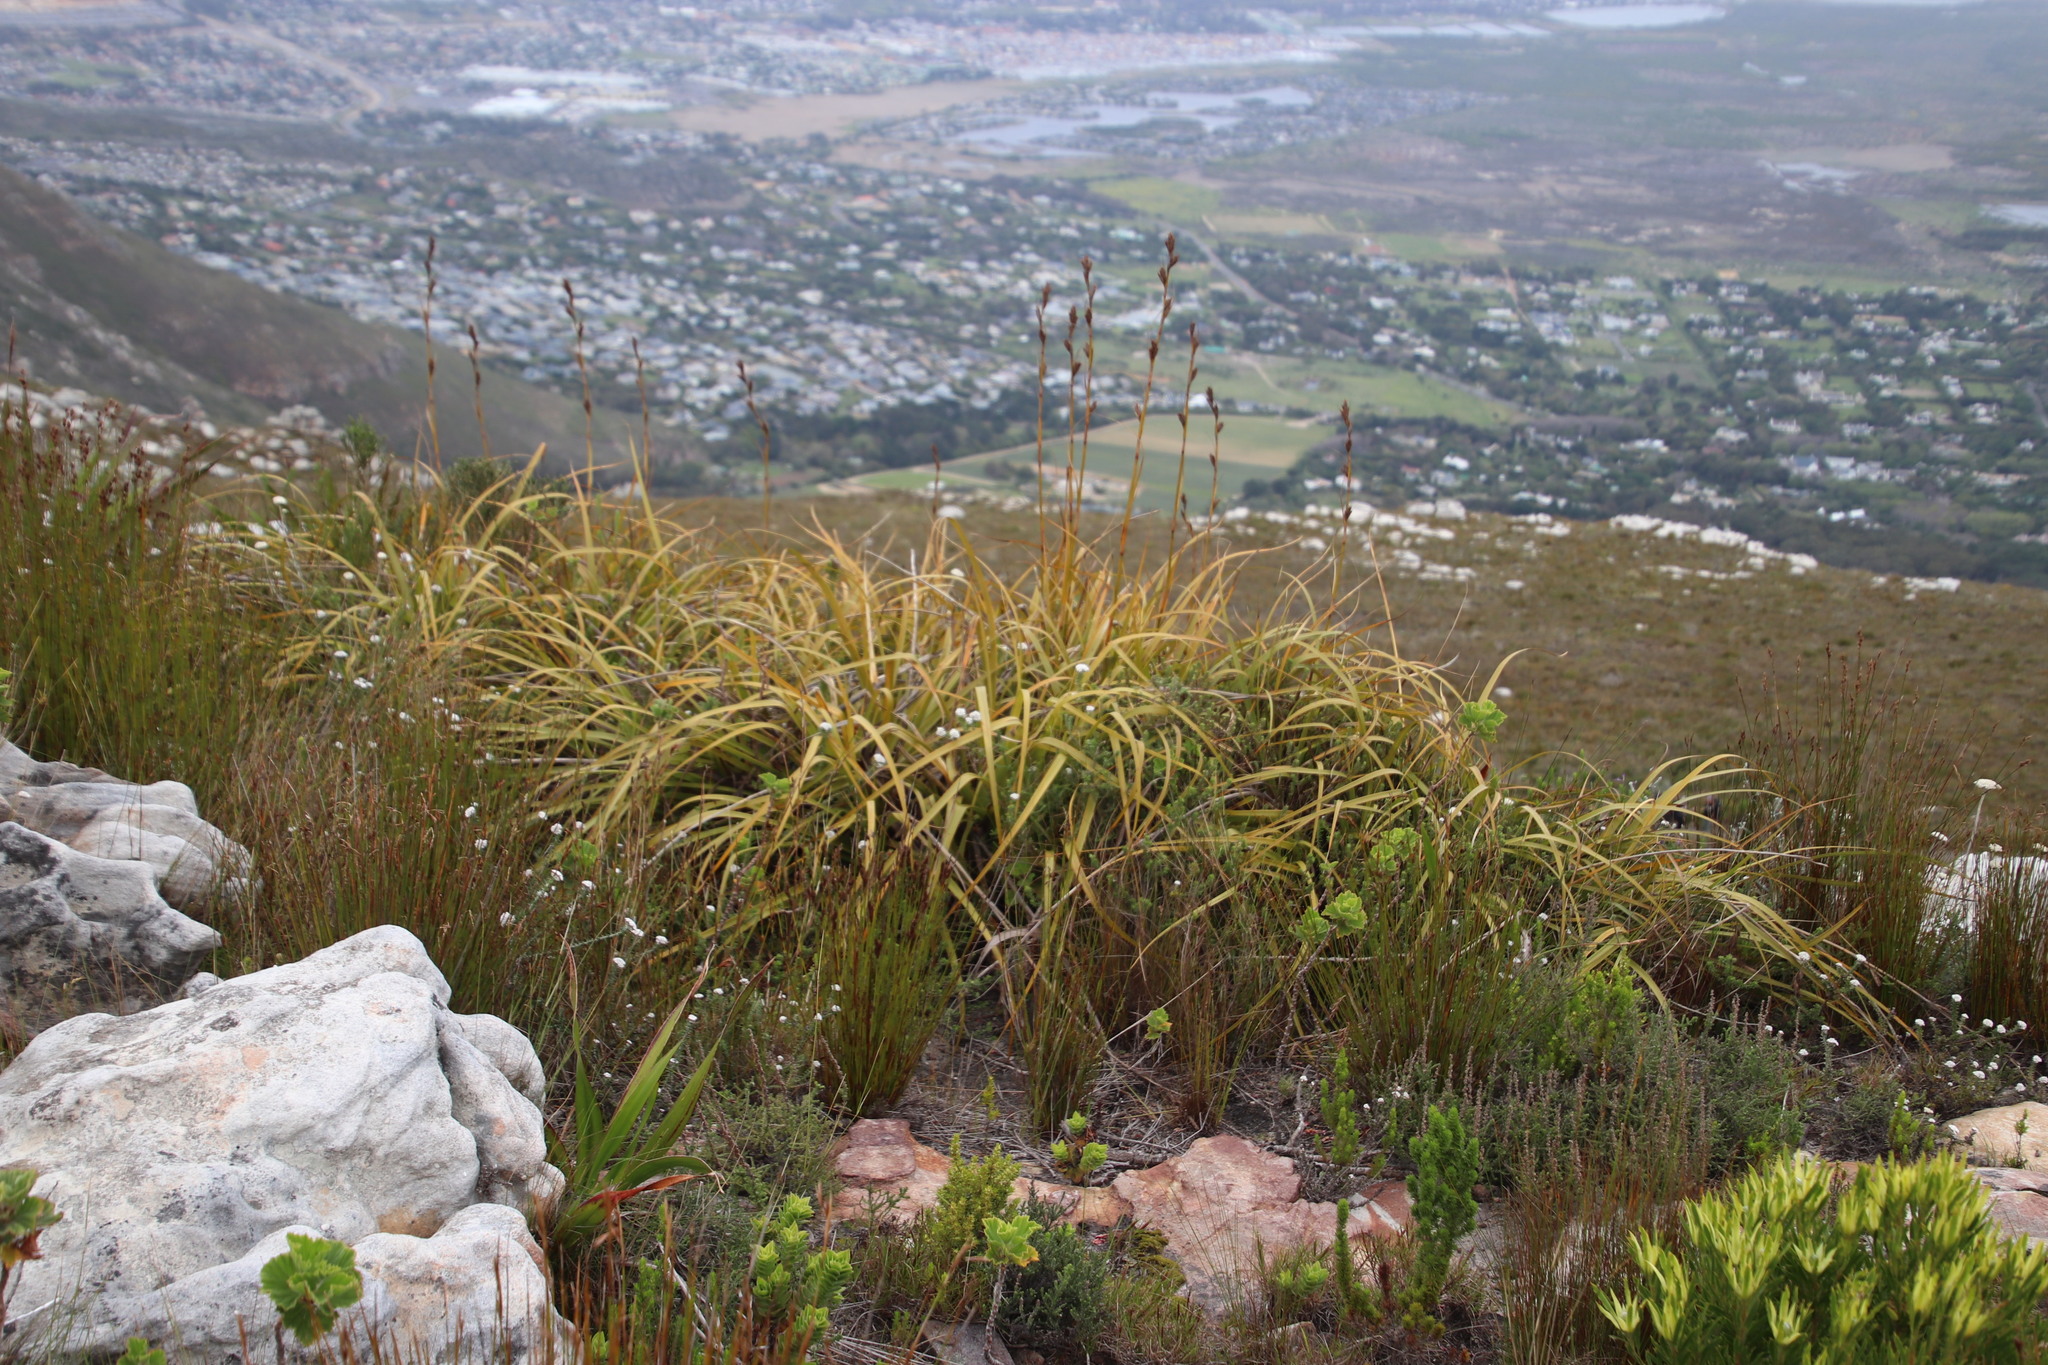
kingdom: Plantae
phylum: Tracheophyta
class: Liliopsida
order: Poales
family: Cyperaceae
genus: Tetraria
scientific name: Tetraria thermalis
